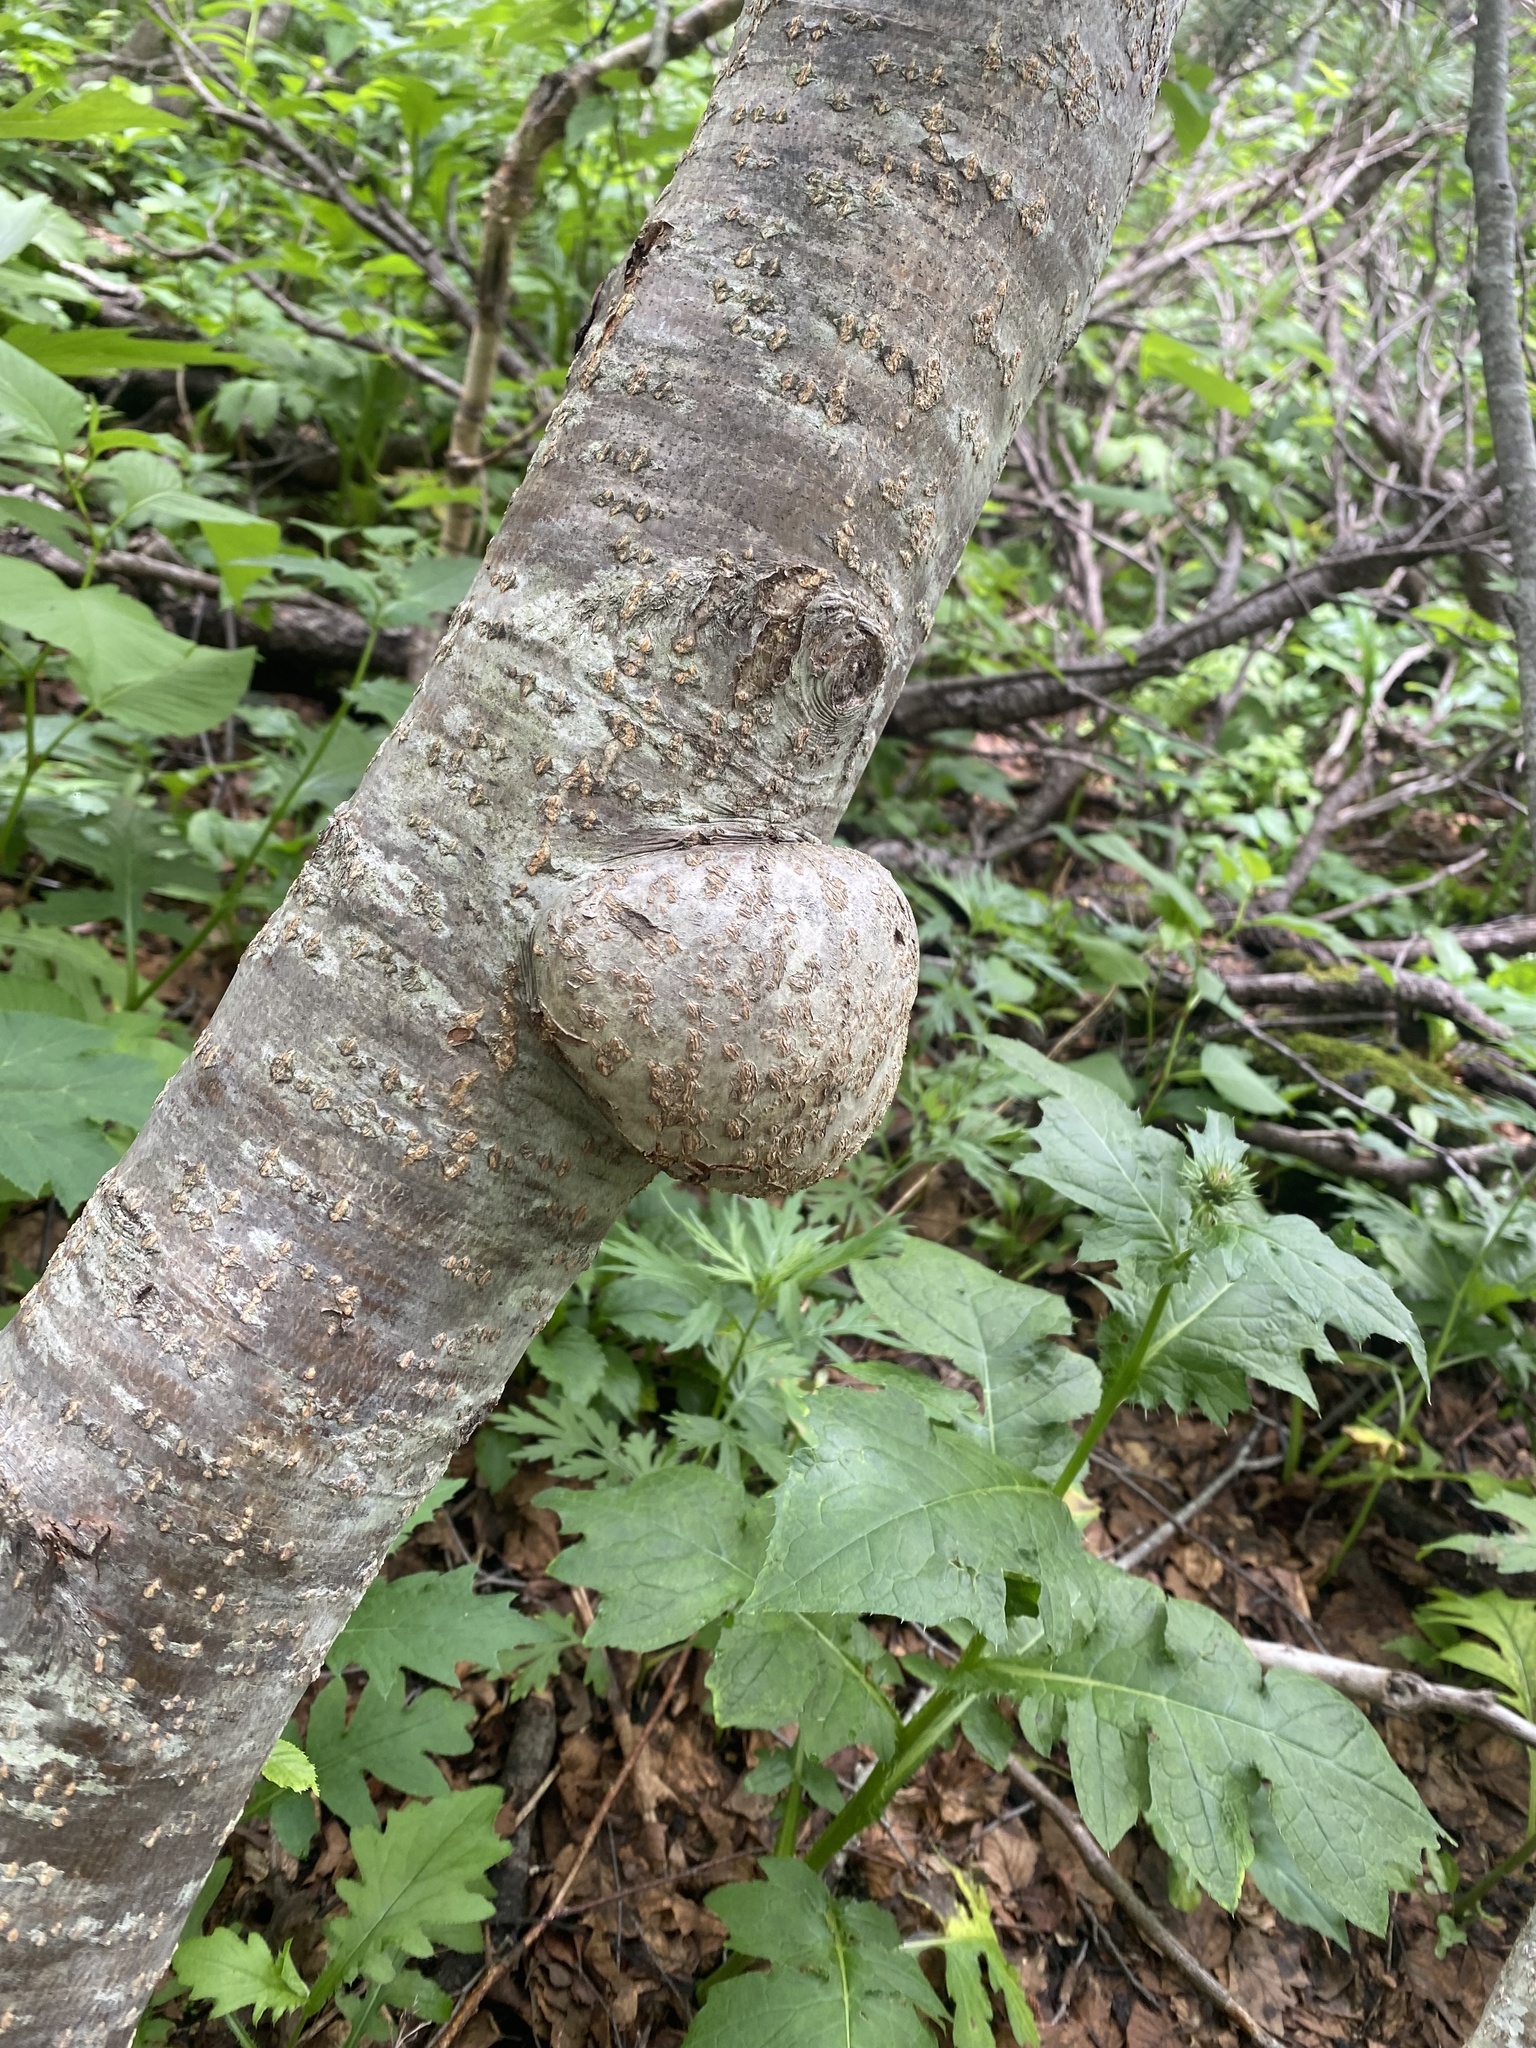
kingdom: Bacteria
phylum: Proteobacteria
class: Alphaproteobacteria
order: Rhizobiales
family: Rhizobiaceae
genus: Rhizobium
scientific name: Rhizobium Agrobacterium radiobacter
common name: Bacterial crown gall
